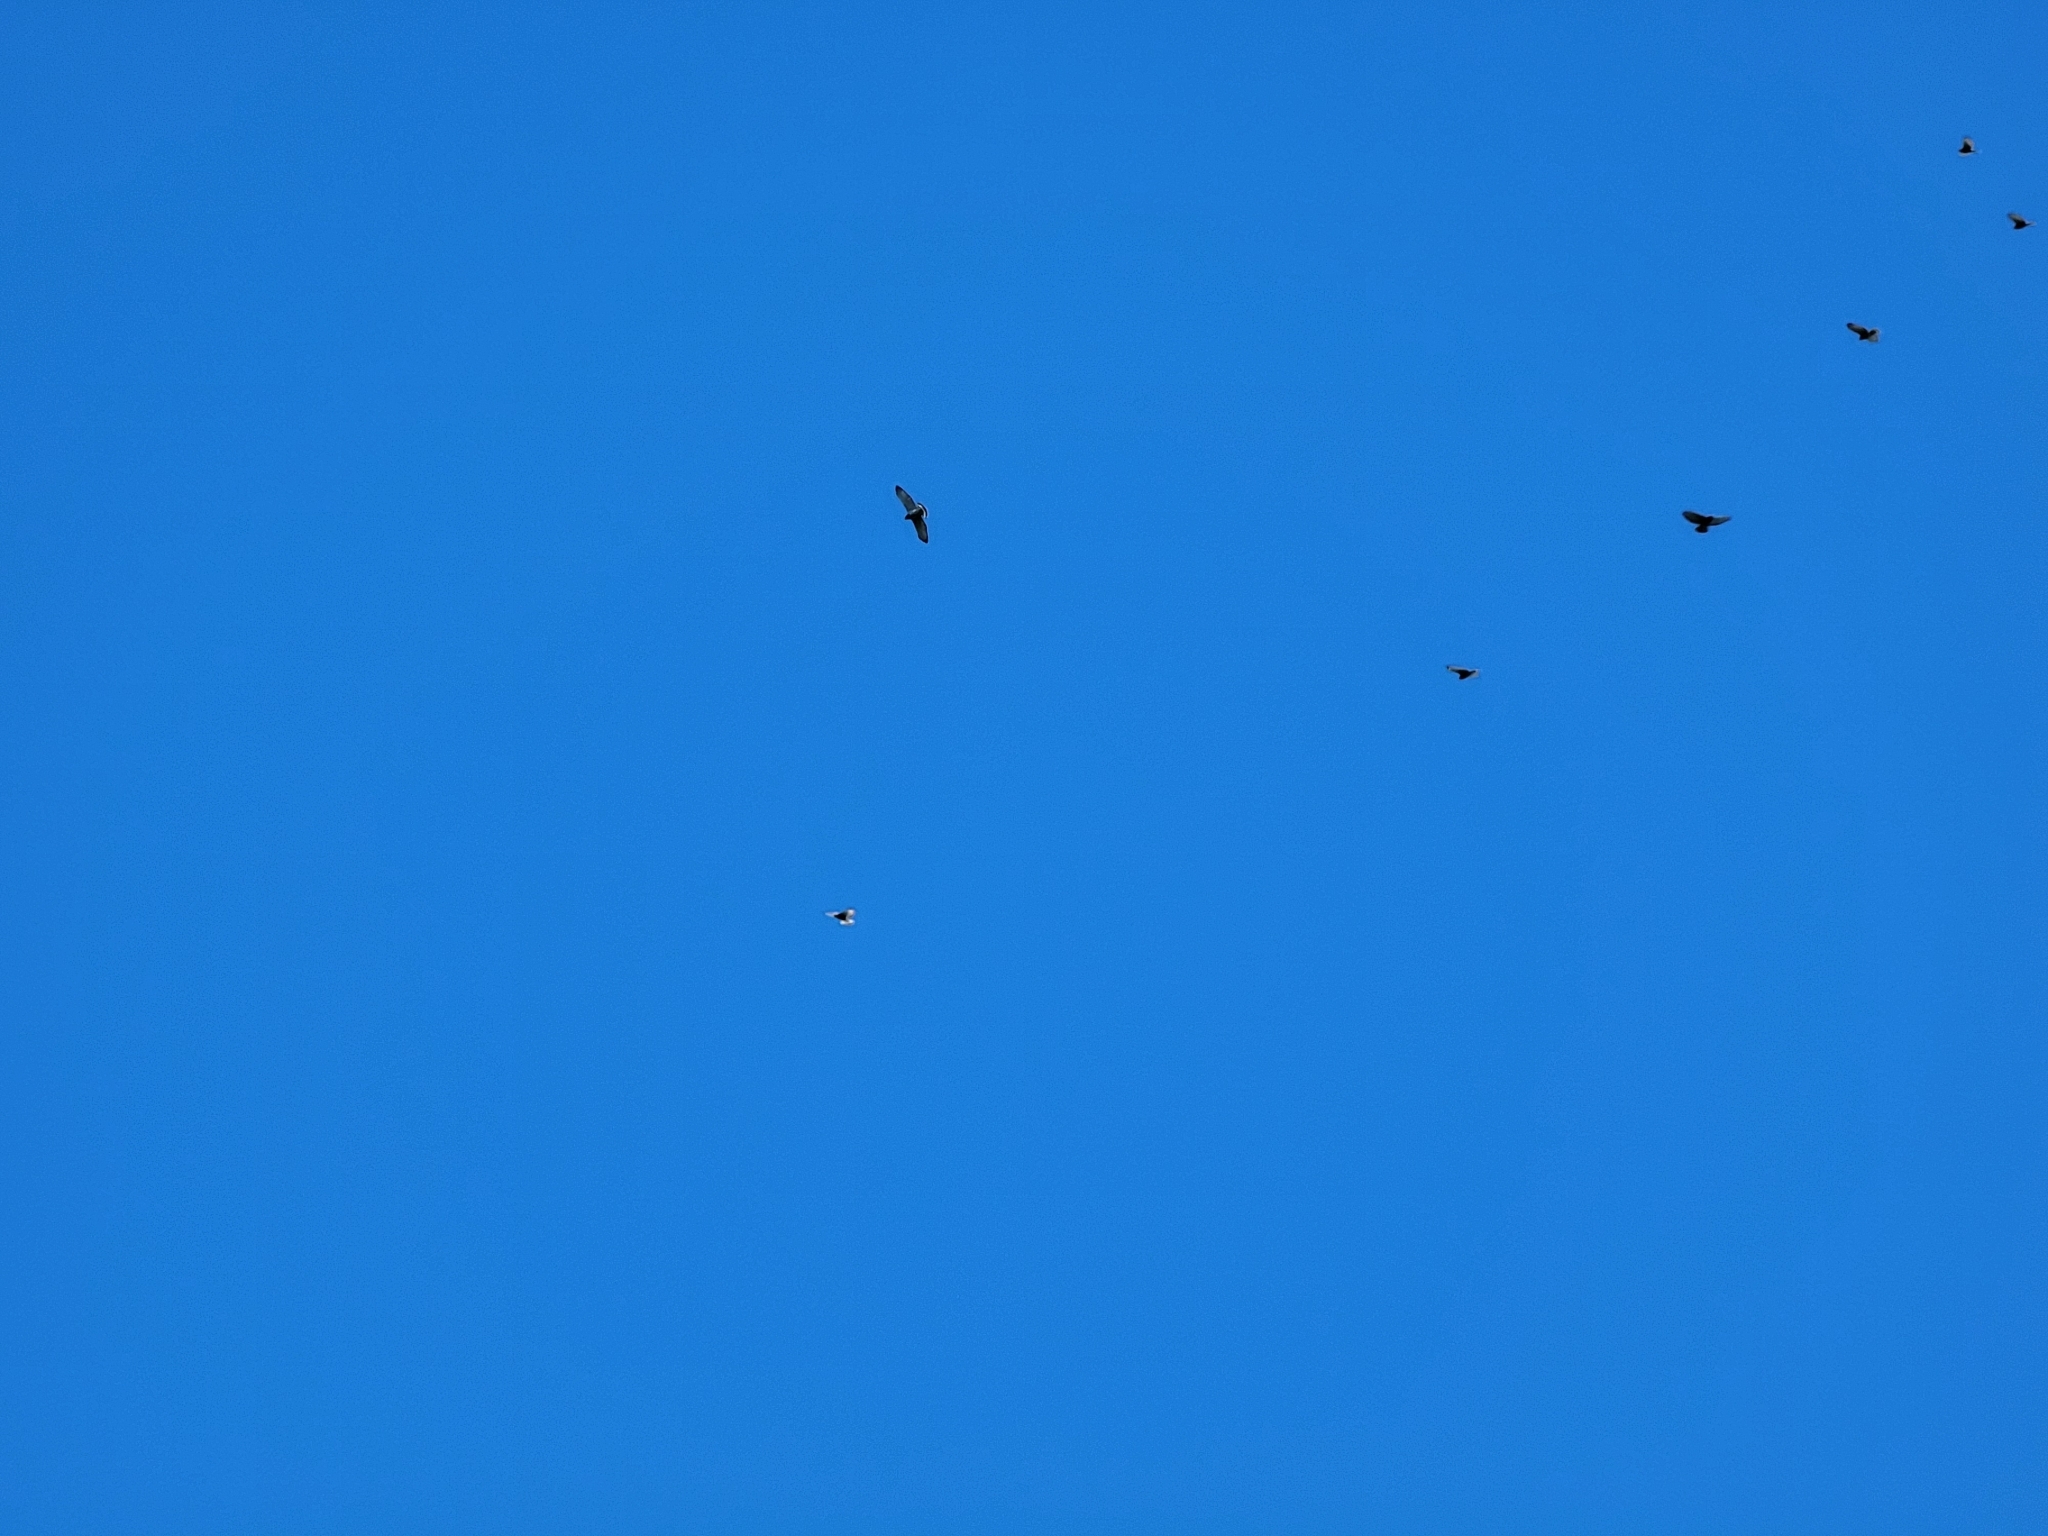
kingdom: Animalia
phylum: Chordata
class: Aves
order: Accipitriformes
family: Accipitridae
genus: Buteo
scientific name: Buteo platypterus
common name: Broad-winged hawk
